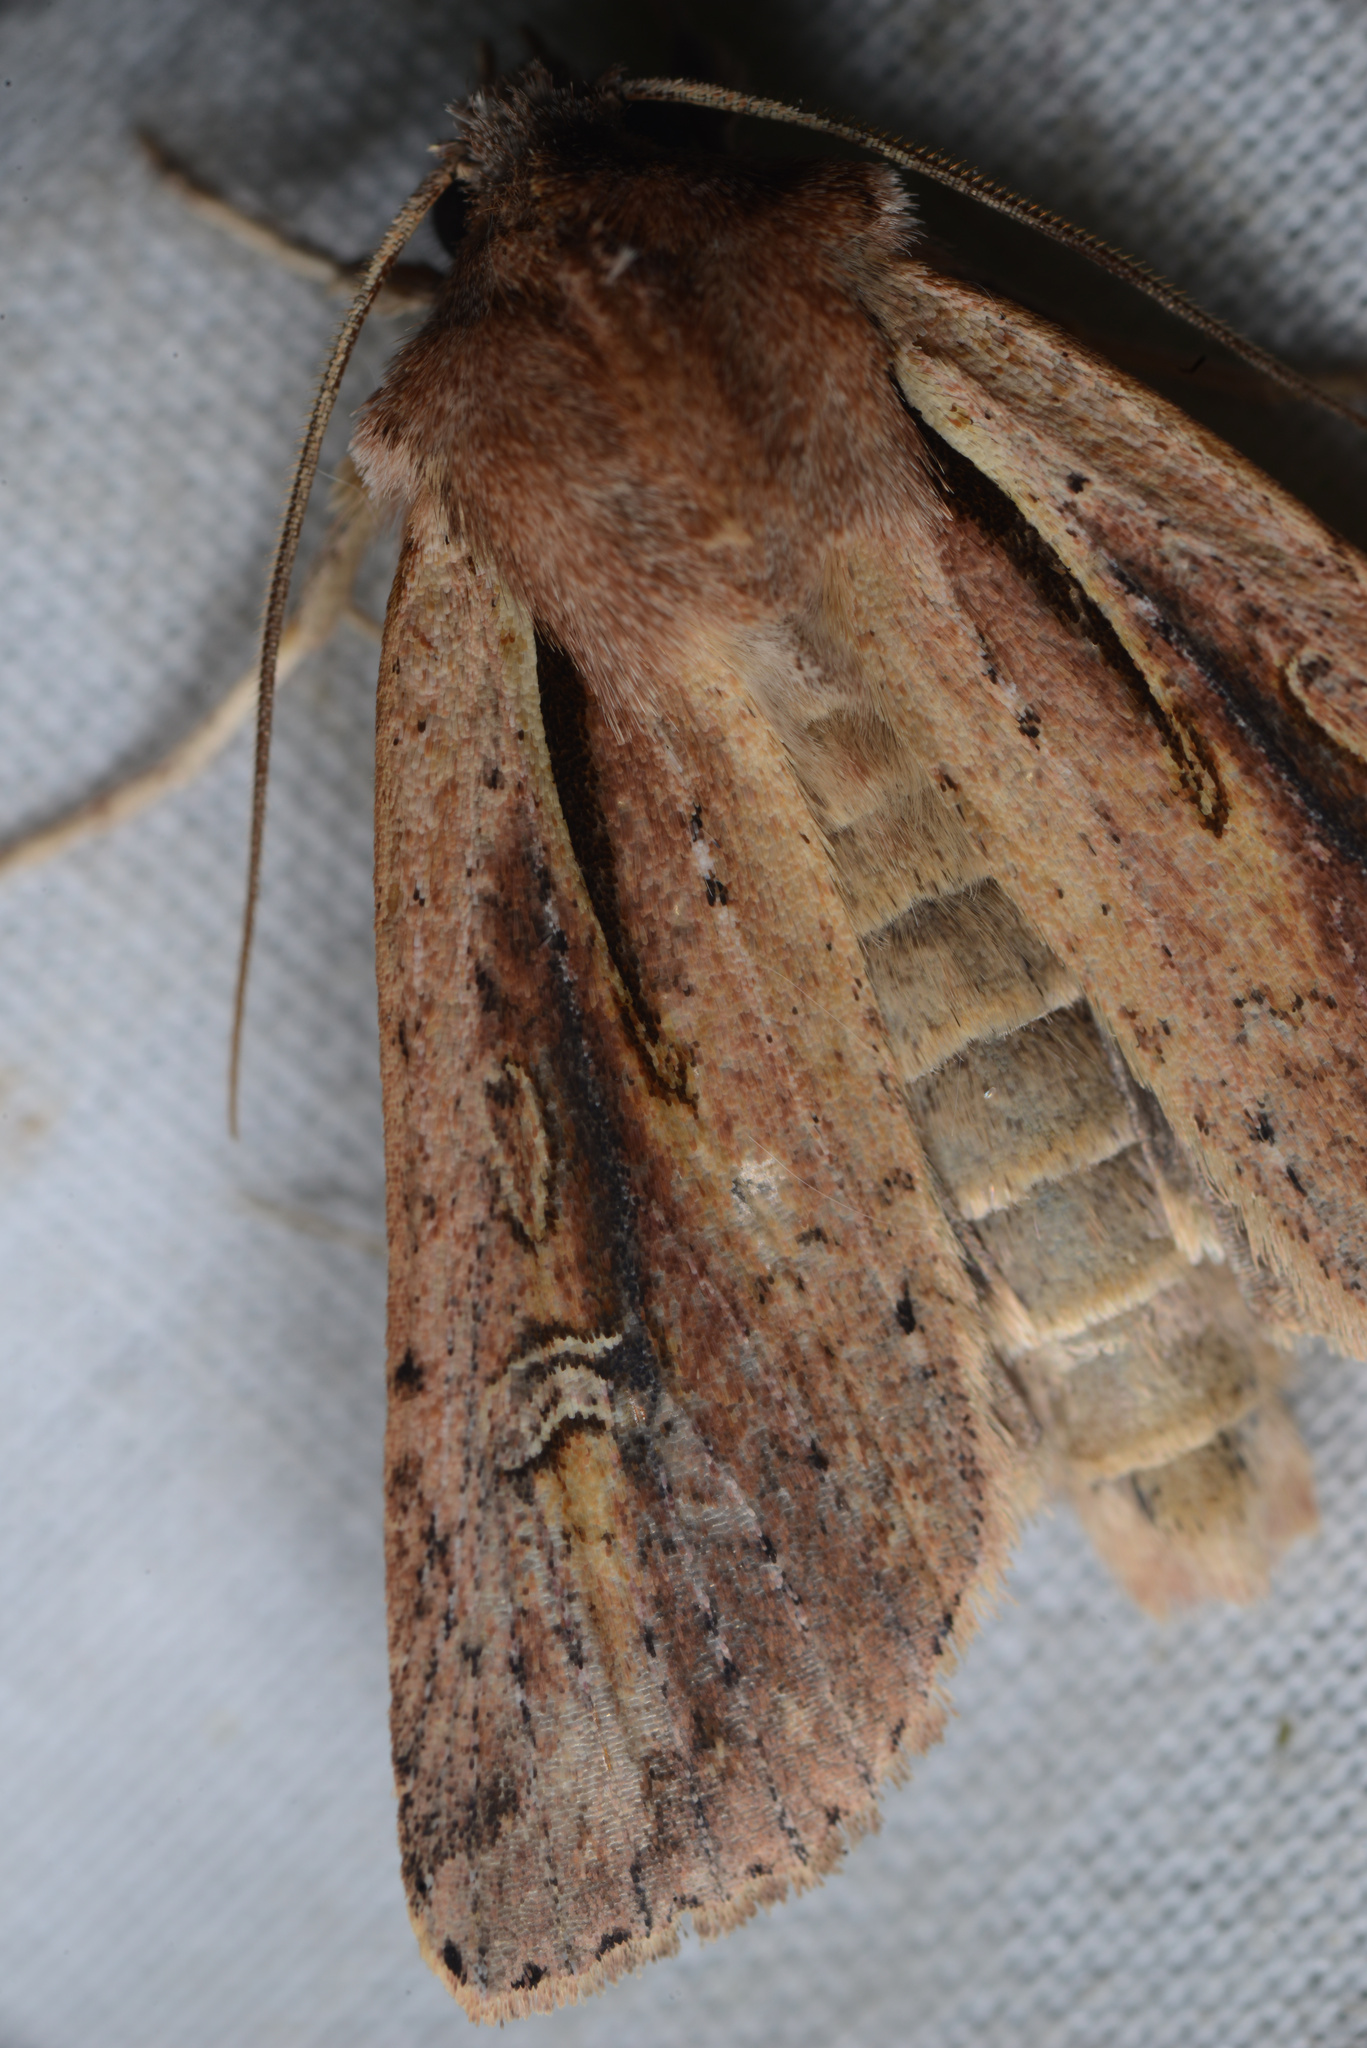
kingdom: Animalia
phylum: Arthropoda
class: Insecta
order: Lepidoptera
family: Noctuidae
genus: Ichneutica
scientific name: Ichneutica atristriga
